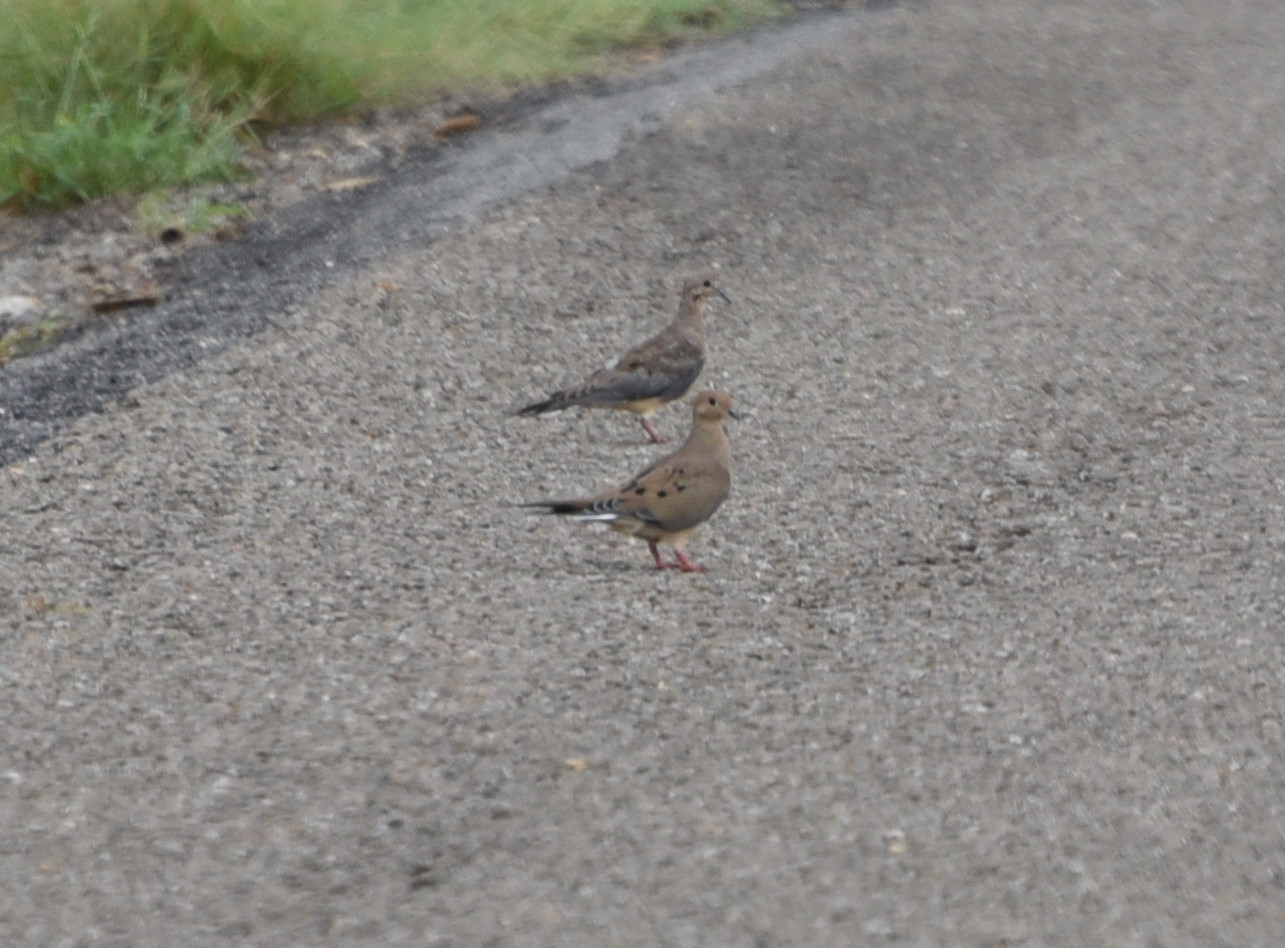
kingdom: Animalia
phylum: Chordata
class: Aves
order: Columbiformes
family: Columbidae
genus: Zenaida
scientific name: Zenaida macroura
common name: Mourning dove
